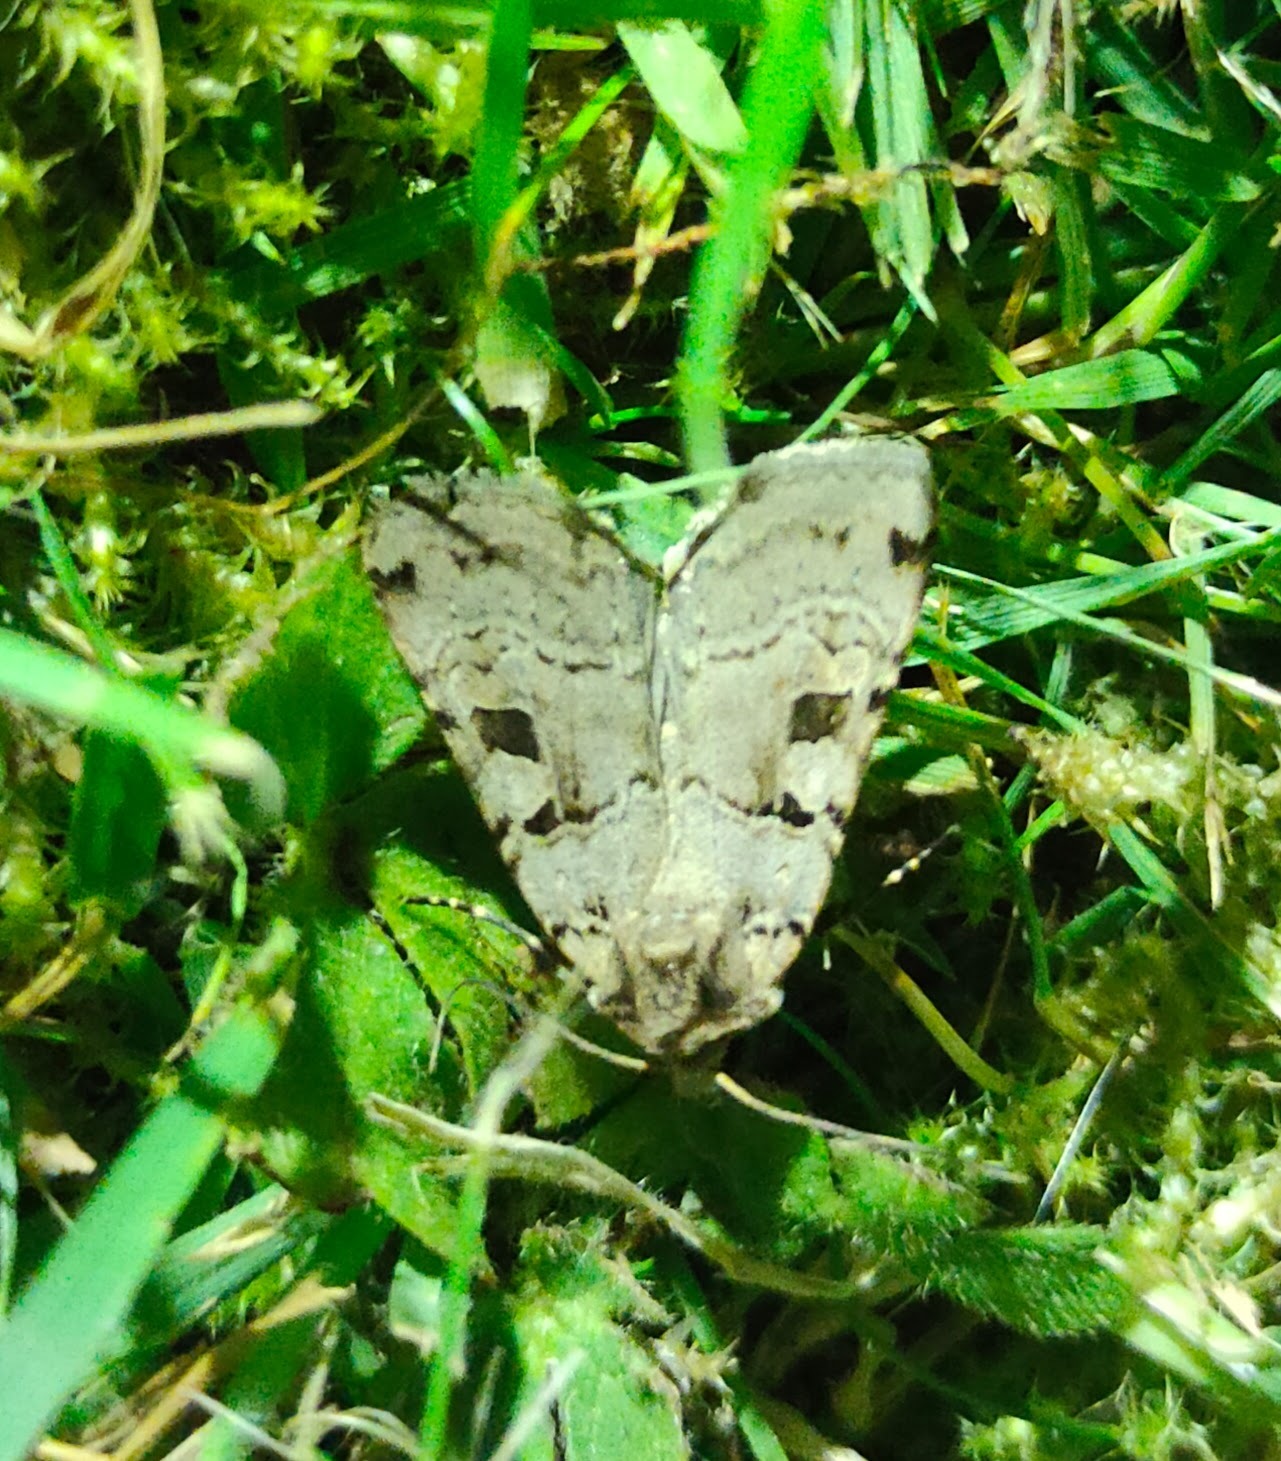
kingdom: Animalia
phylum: Arthropoda
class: Insecta
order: Lepidoptera
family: Noctuidae
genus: Xestia
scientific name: Xestia triangulum
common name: Double square-spot
